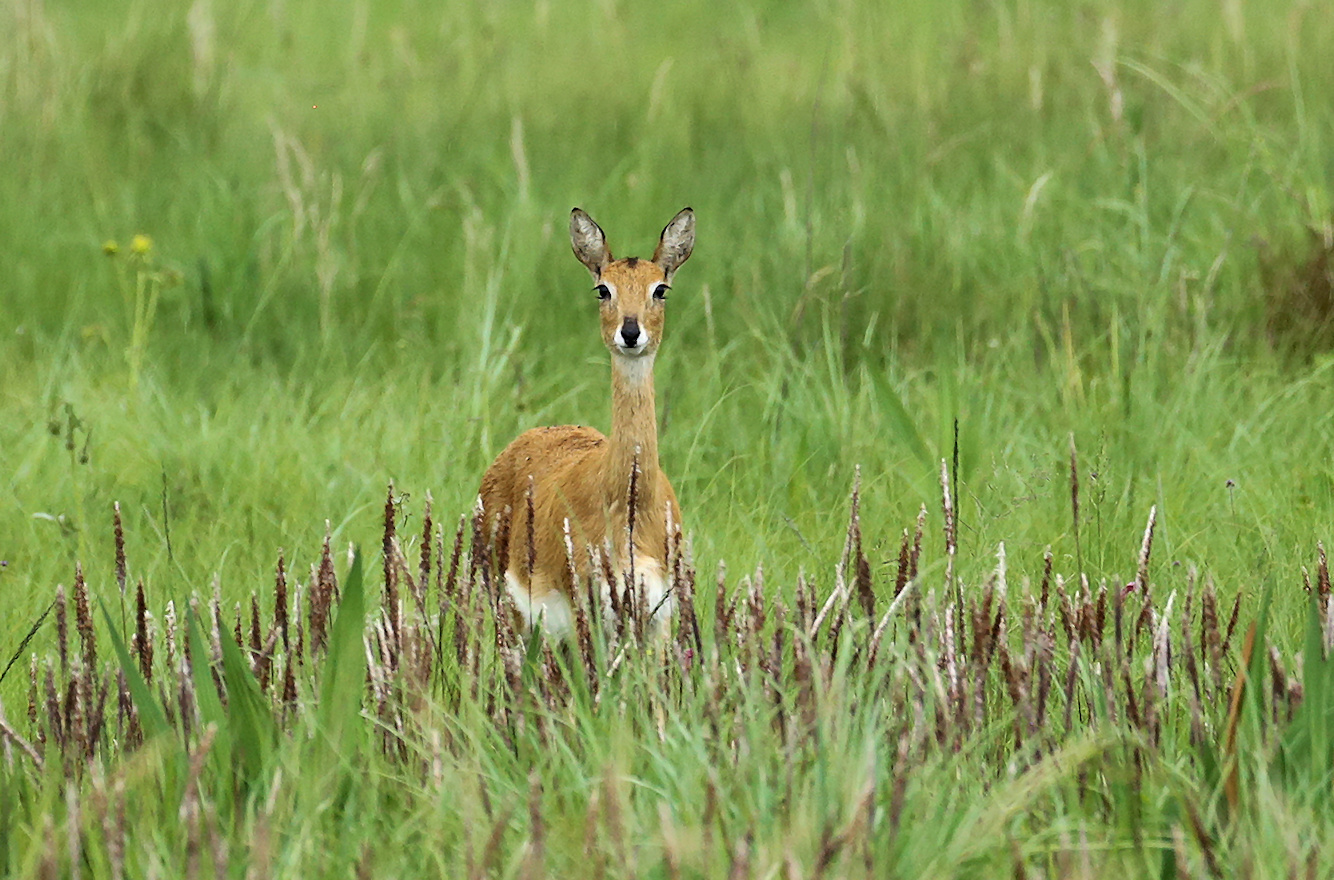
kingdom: Animalia
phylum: Chordata
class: Mammalia
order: Artiodactyla
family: Bovidae
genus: Ourebia
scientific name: Ourebia ourebi
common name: Oribi
